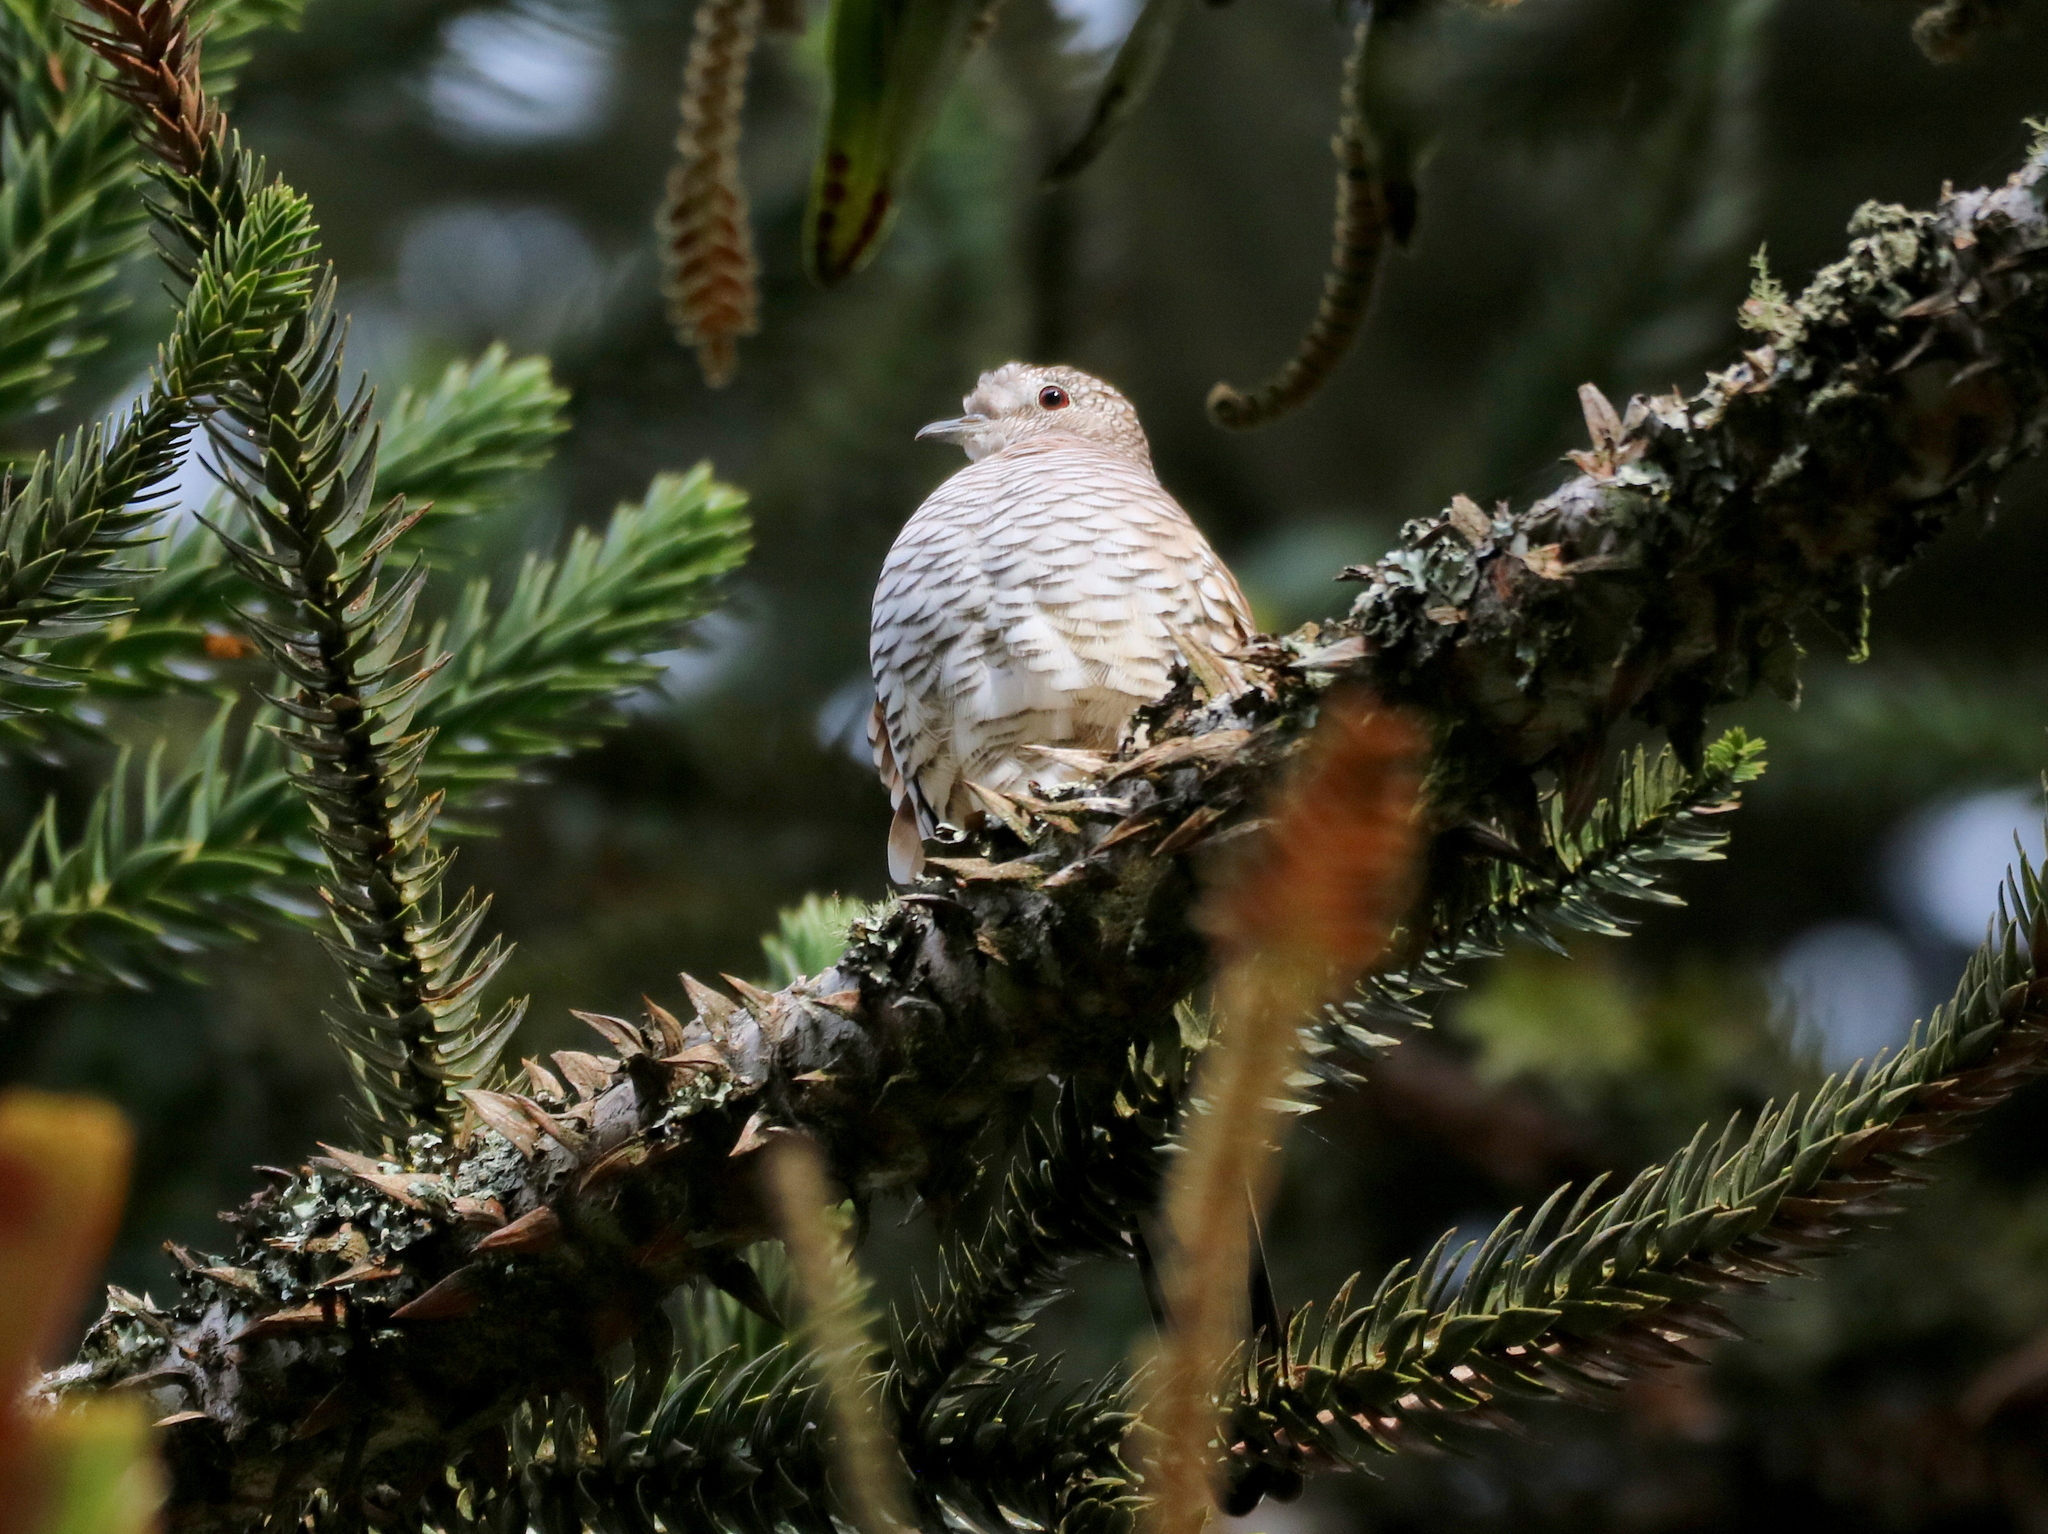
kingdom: Animalia
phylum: Chordata
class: Aves
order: Columbiformes
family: Columbidae
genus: Columbina
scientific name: Columbina squammata
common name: Scaled dove
